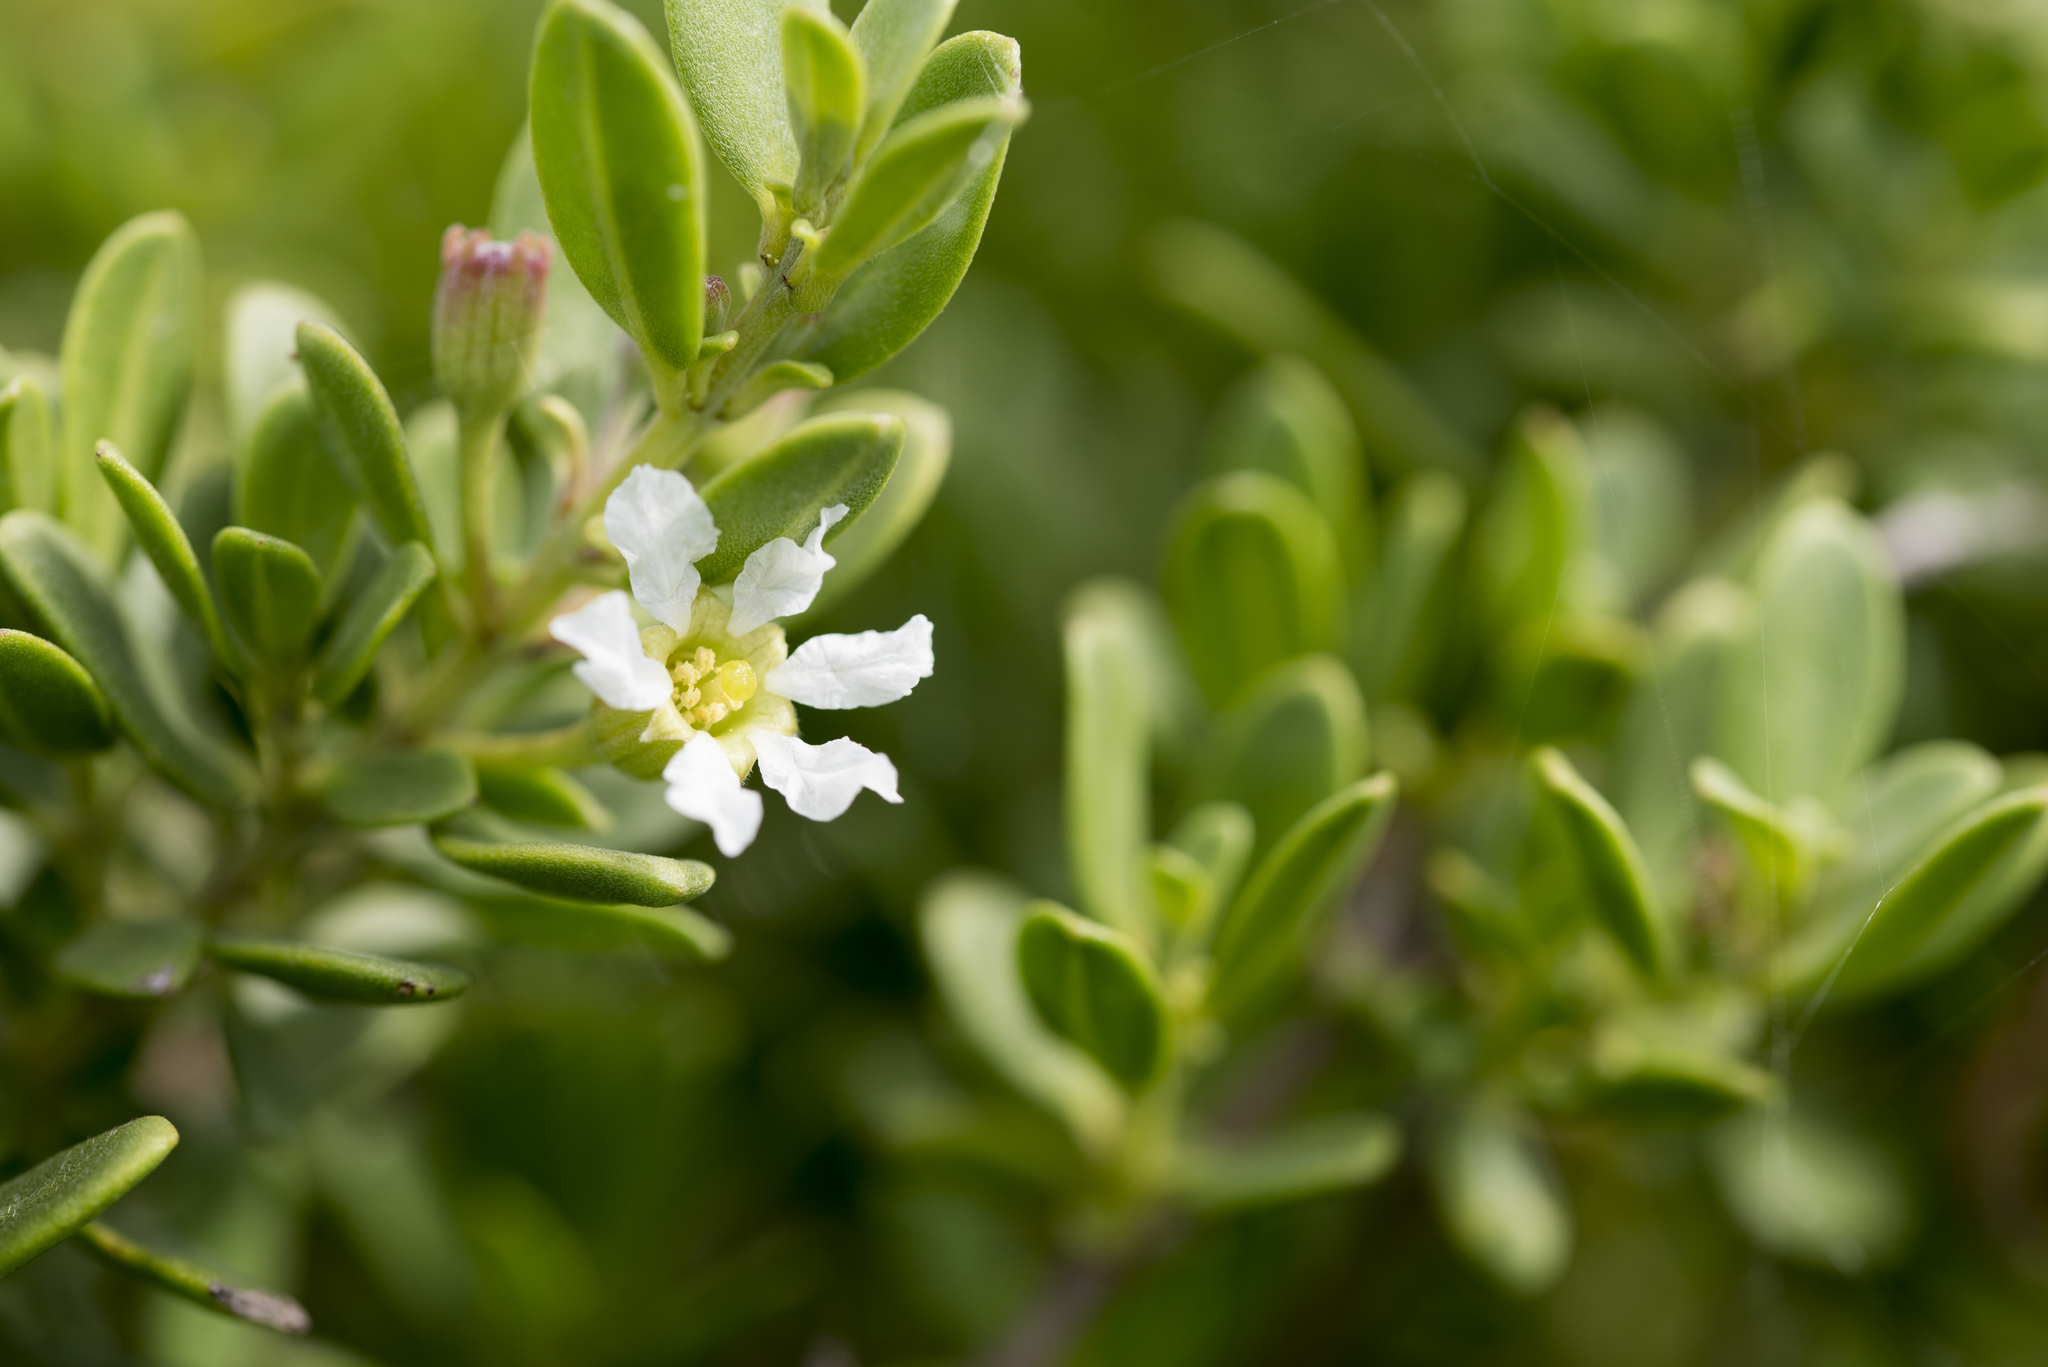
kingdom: Plantae
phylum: Tracheophyta
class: Magnoliopsida
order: Myrtales
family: Lythraceae
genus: Pemphis
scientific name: Pemphis acidula
